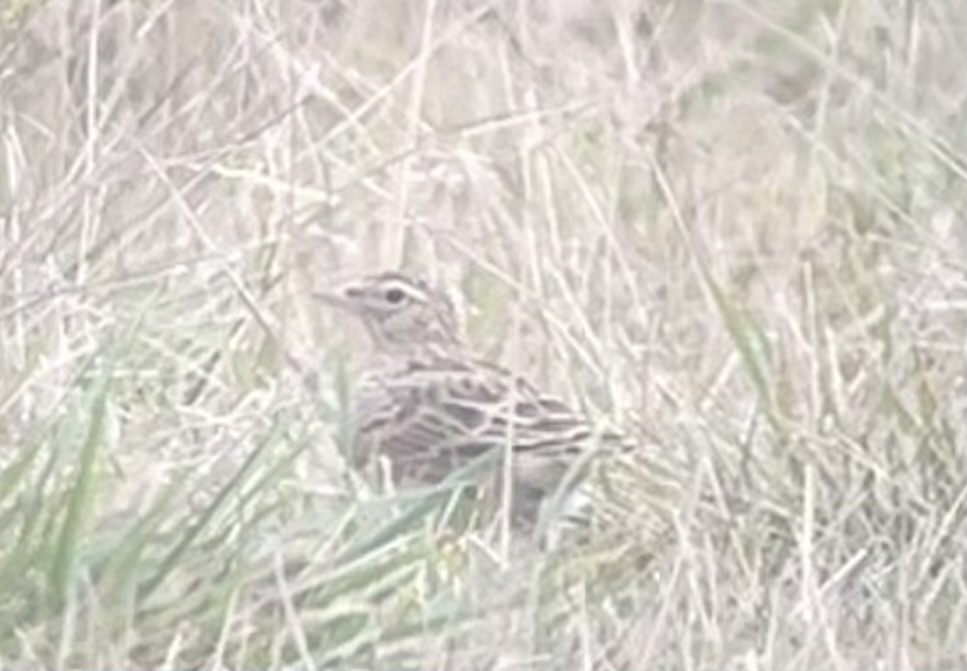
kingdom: Animalia
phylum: Chordata
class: Aves
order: Passeriformes
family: Alaudidae
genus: Alauda
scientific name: Alauda arvensis
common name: Eurasian skylark
